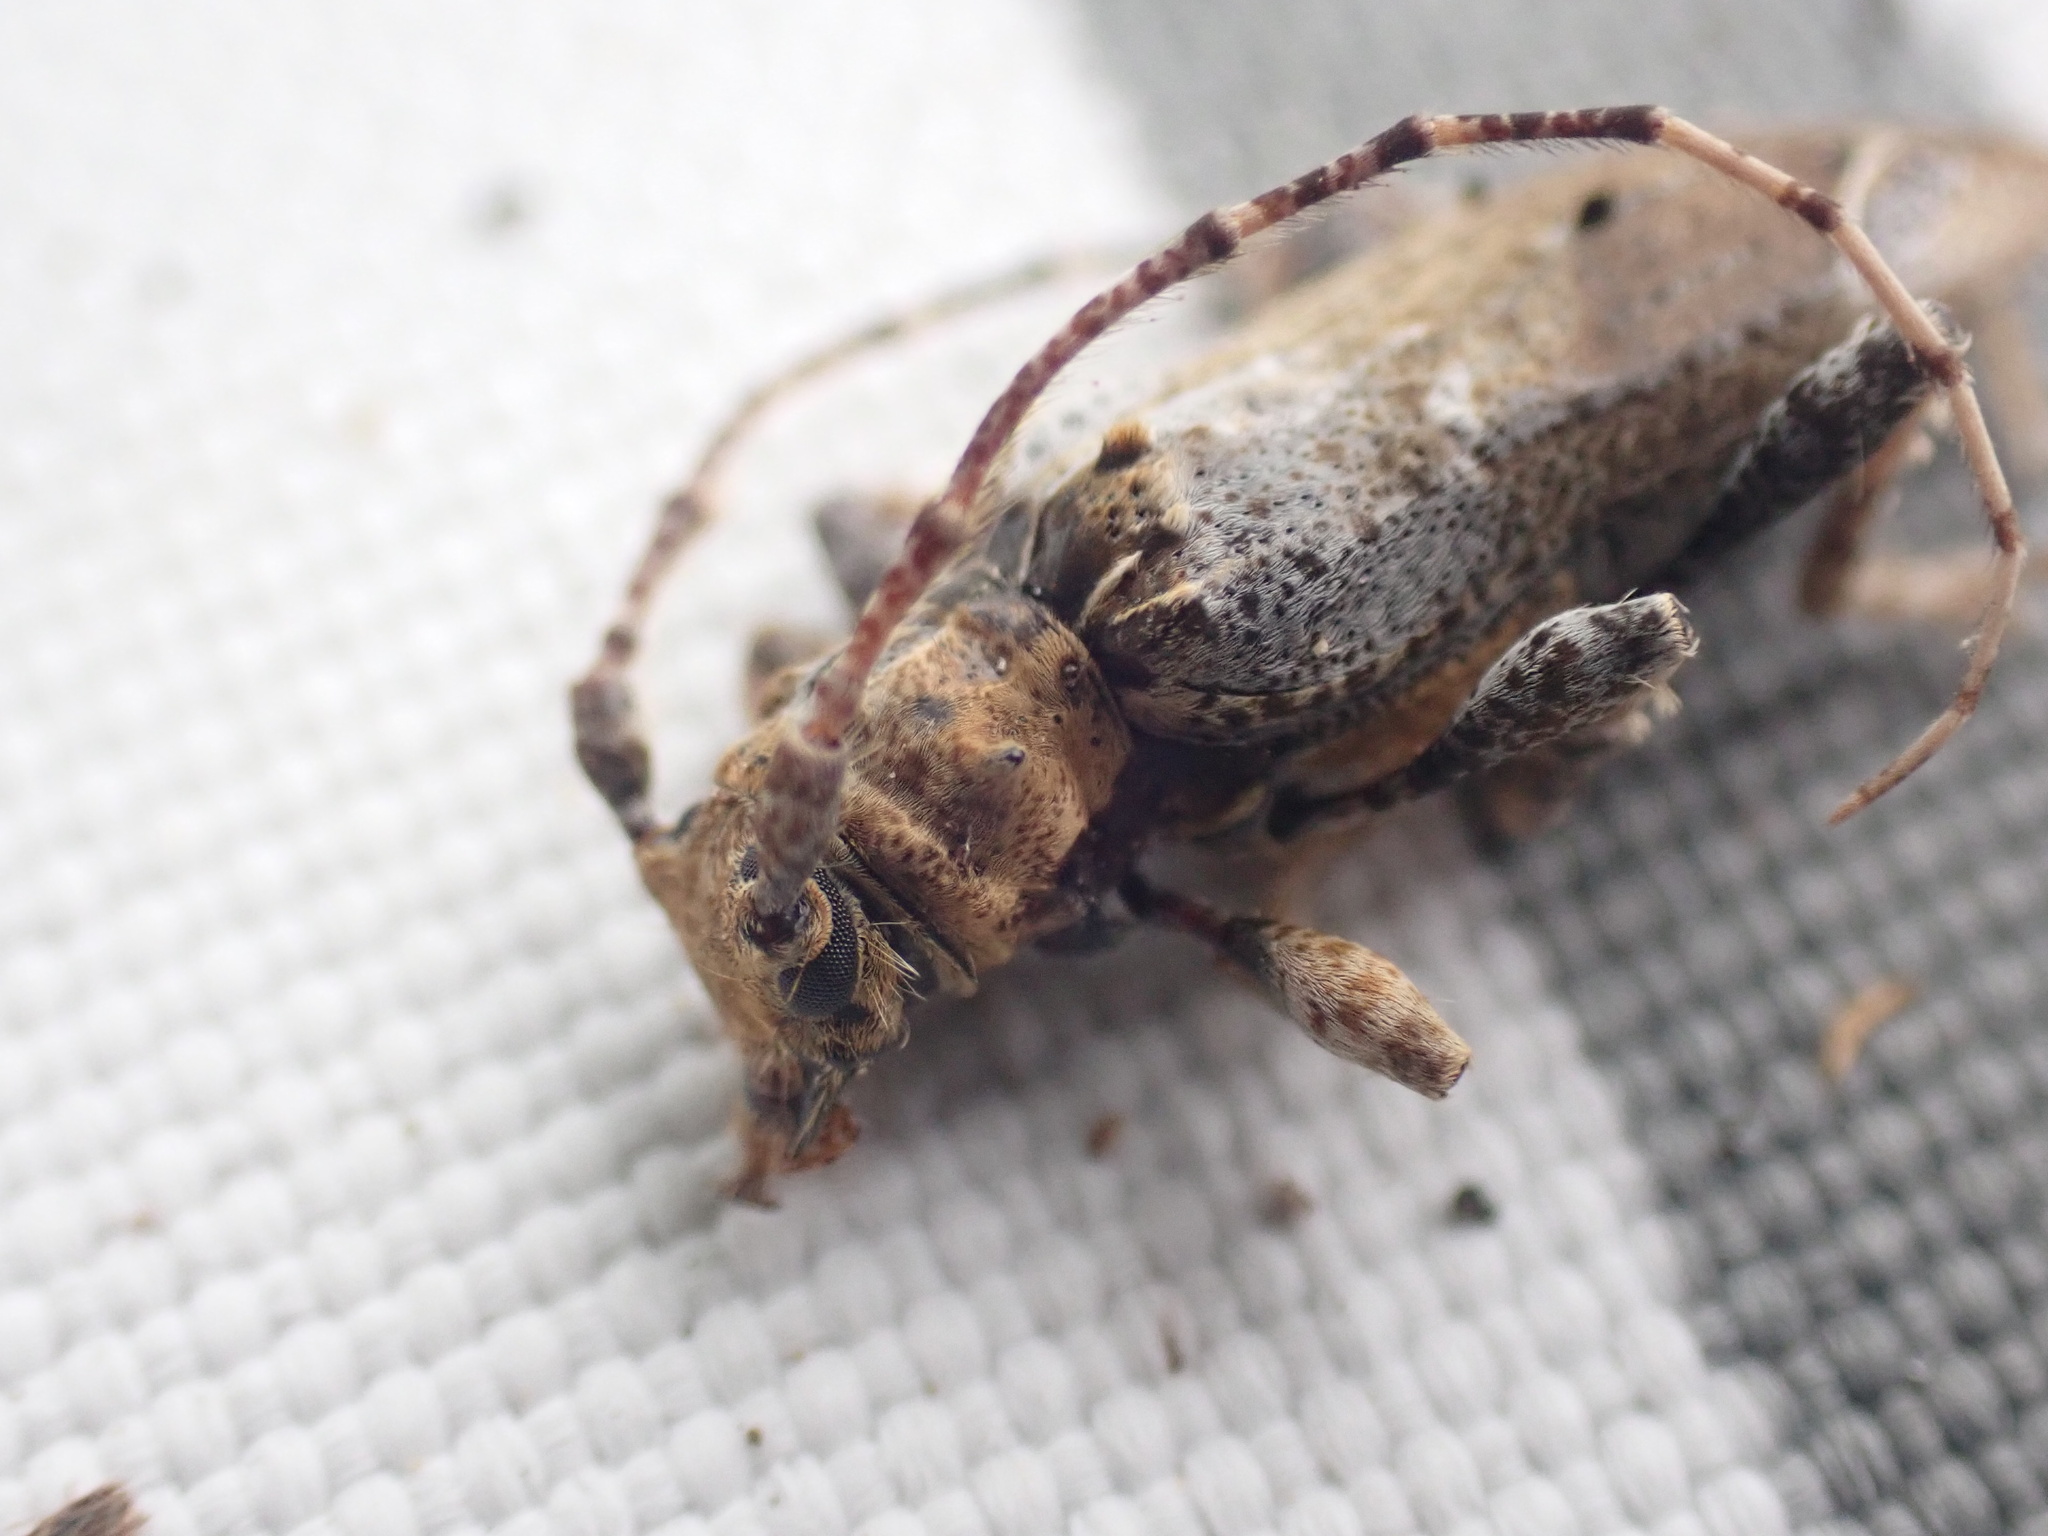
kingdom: Animalia
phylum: Arthropoda
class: Insecta
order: Coleoptera
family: Cerambycidae
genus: Tetrorea
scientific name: Tetrorea cilipes
